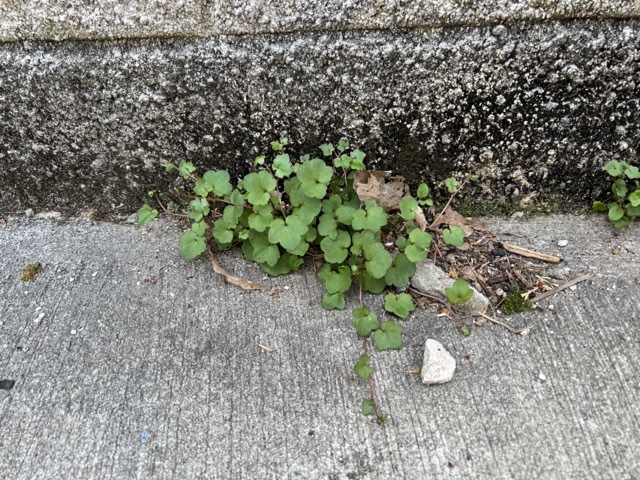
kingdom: Plantae
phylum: Tracheophyta
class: Magnoliopsida
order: Lamiales
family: Plantaginaceae
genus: Cymbalaria
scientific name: Cymbalaria muralis
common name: Ivy-leaved toadflax
